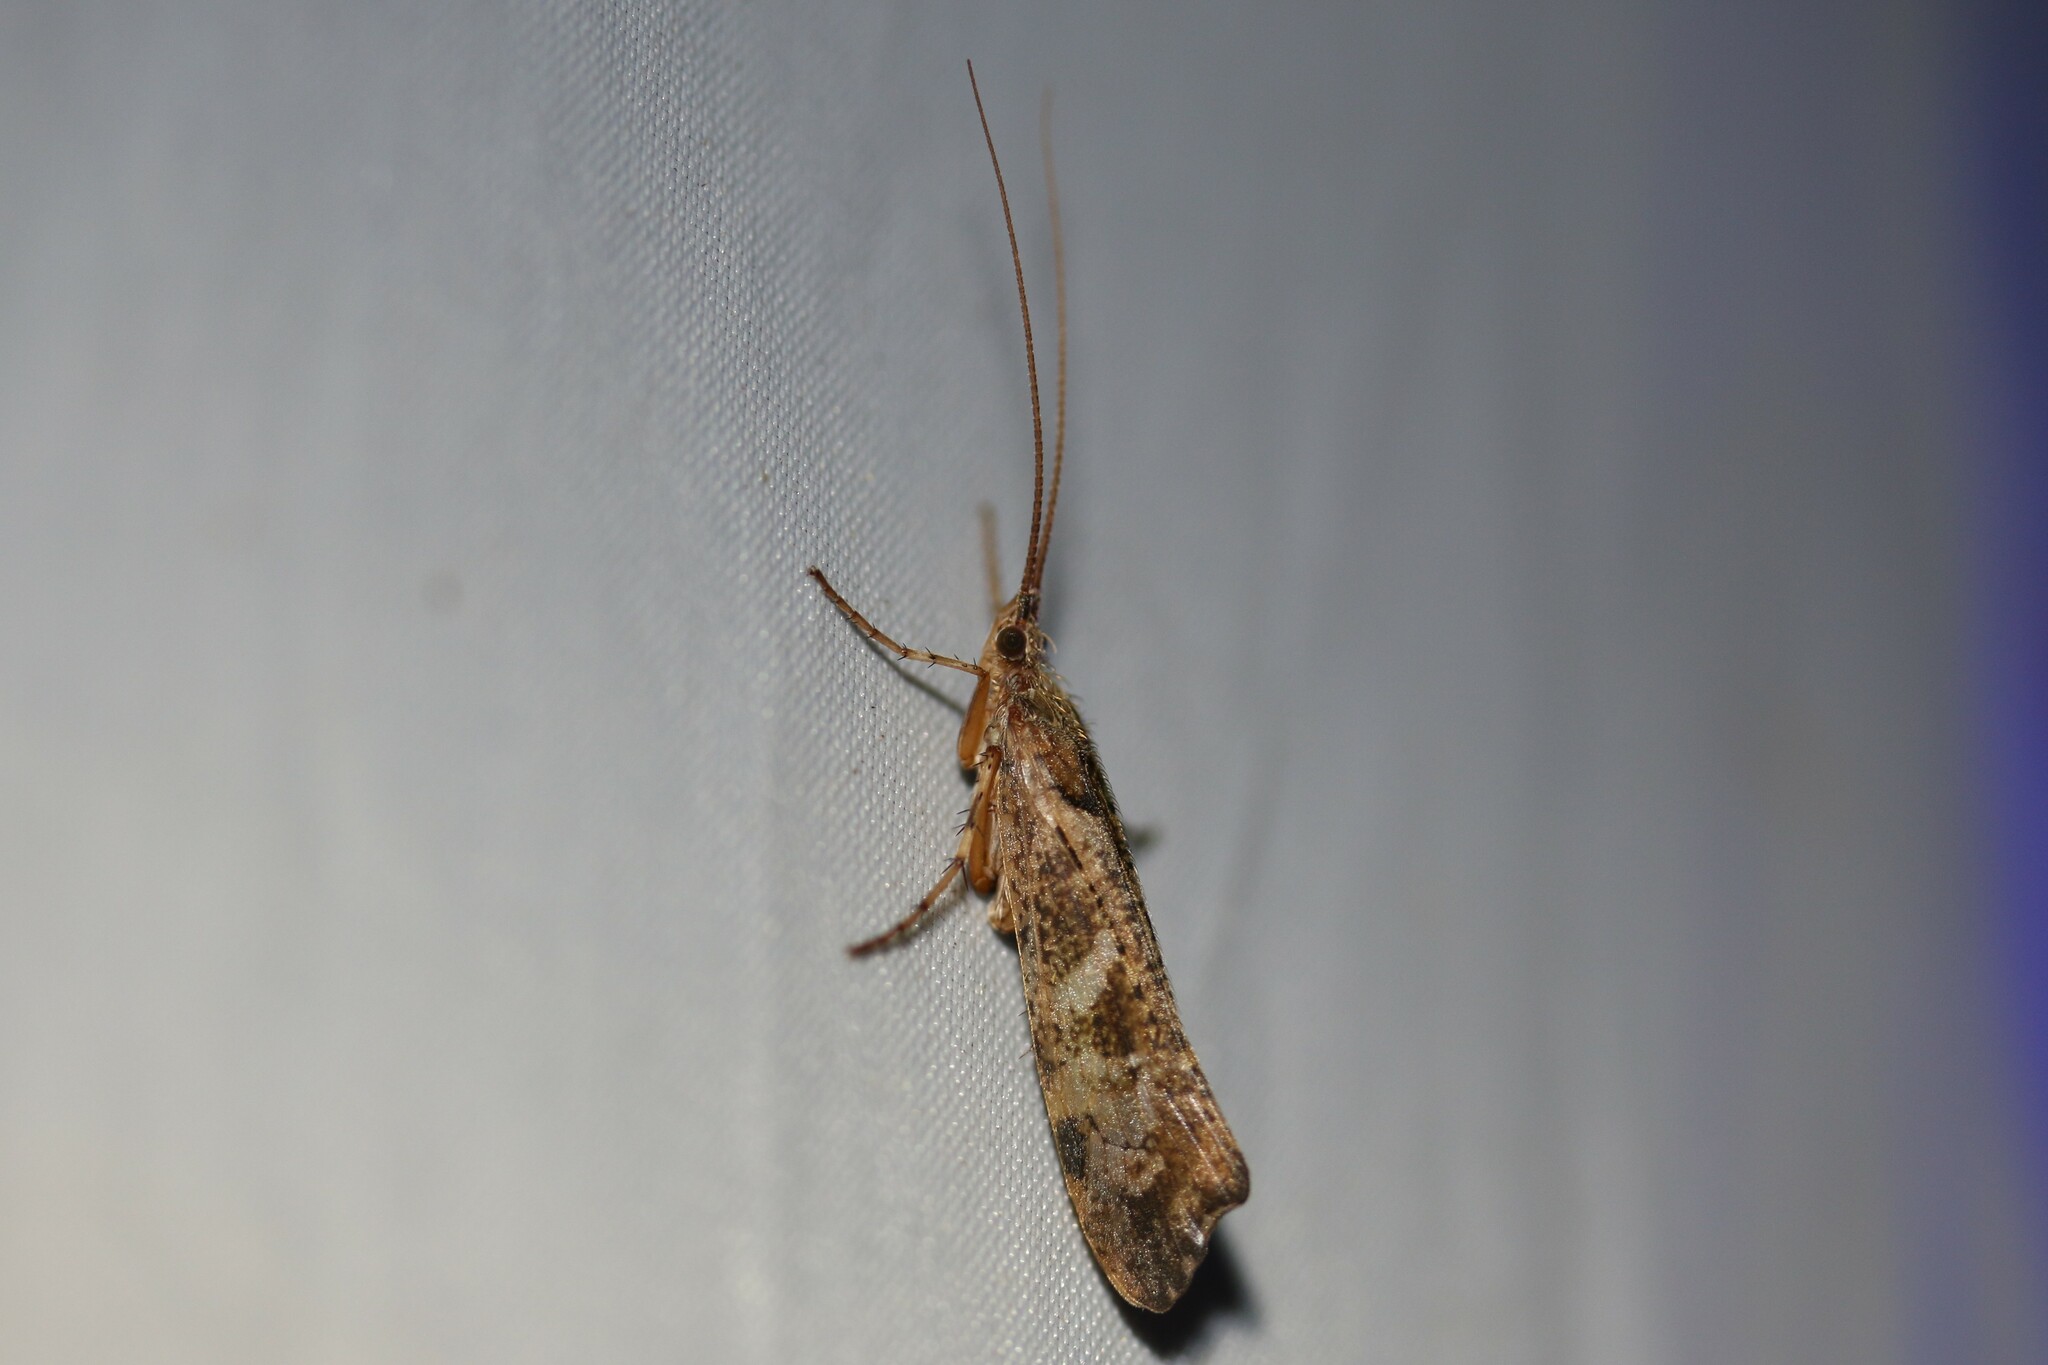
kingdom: Animalia
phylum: Arthropoda
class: Insecta
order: Trichoptera
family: Limnephilidae
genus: Glyphotaelius
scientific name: Glyphotaelius pellucidus
